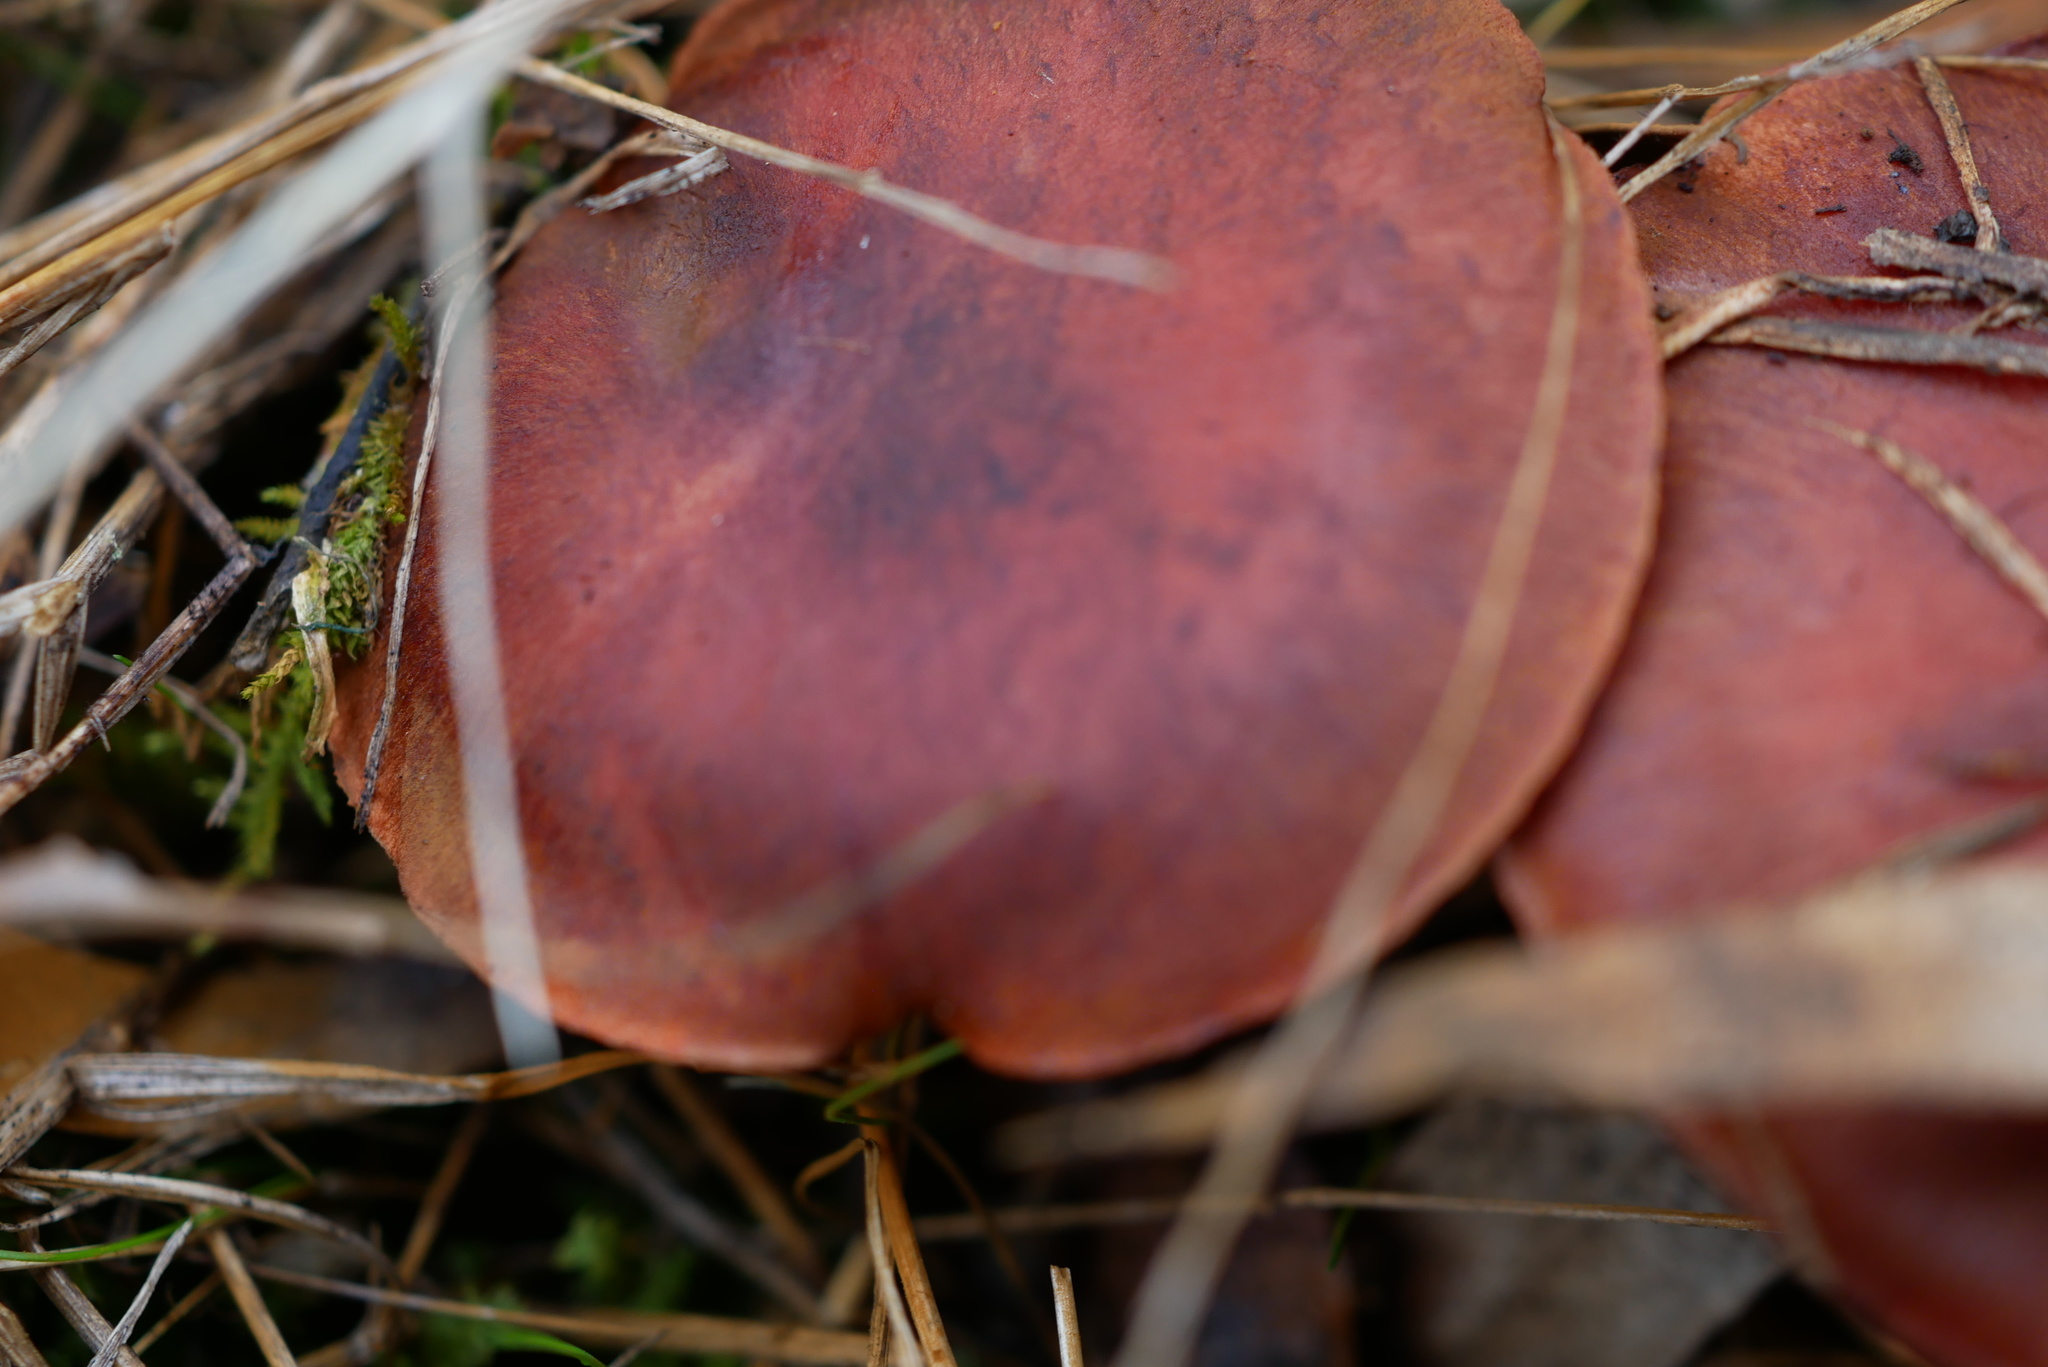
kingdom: Fungi
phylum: Basidiomycota
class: Agaricomycetes
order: Agaricales
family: Cortinariaceae
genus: Cortinarius
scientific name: Cortinarius persplendidus
